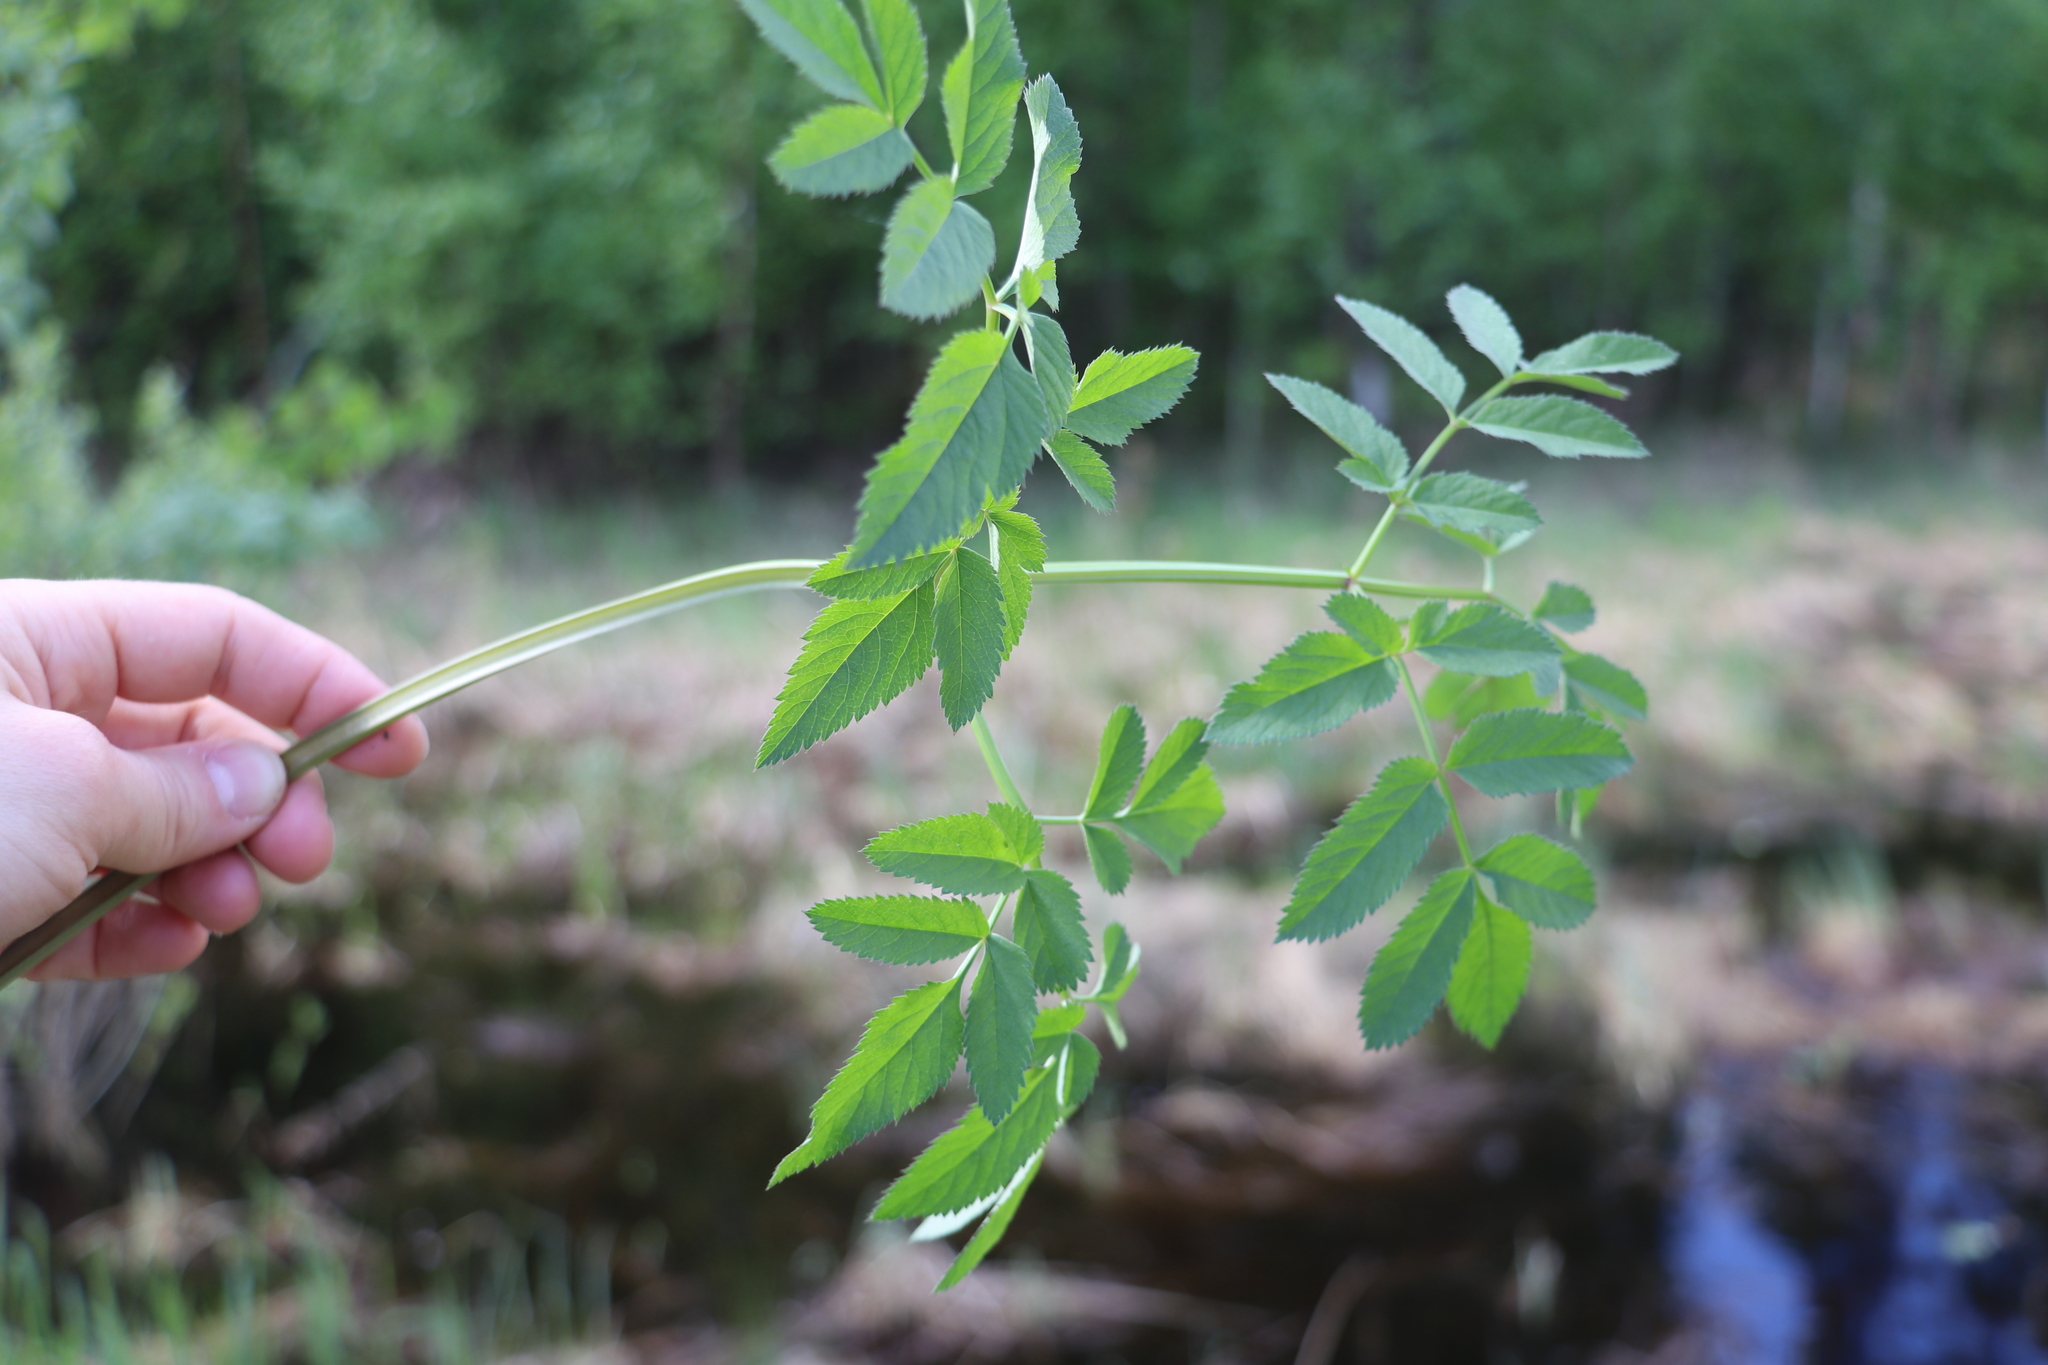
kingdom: Plantae
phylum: Tracheophyta
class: Magnoliopsida
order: Apiales
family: Apiaceae
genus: Angelica
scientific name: Angelica sylvestris
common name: Wild angelica
